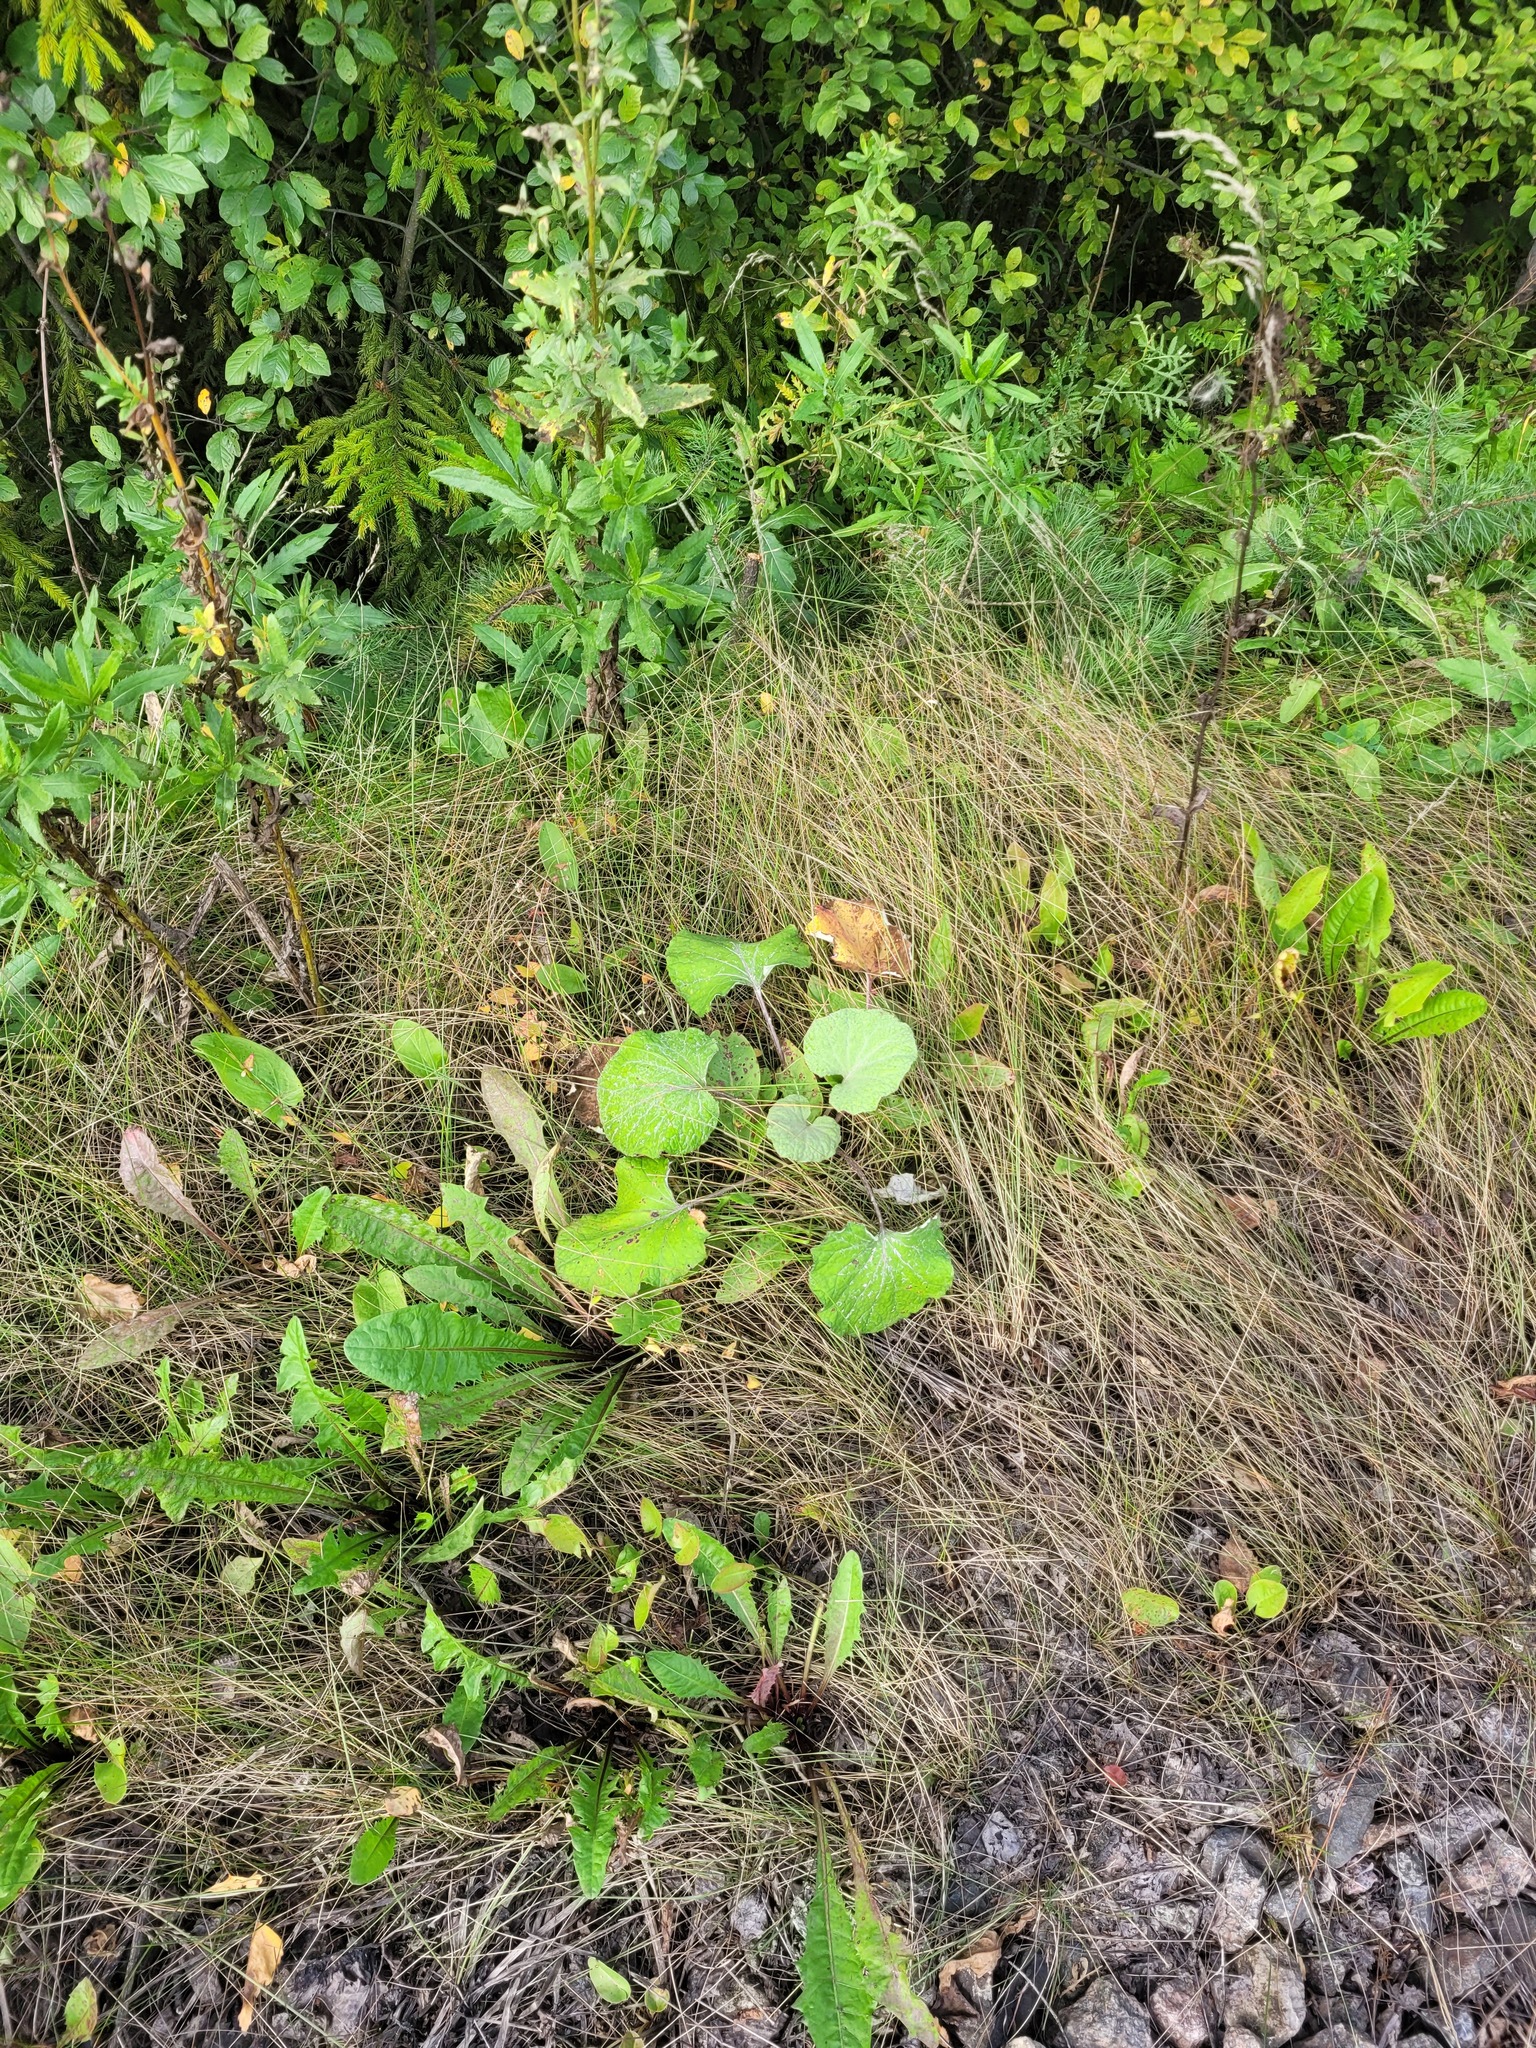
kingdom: Plantae
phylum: Tracheophyta
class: Magnoliopsida
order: Asterales
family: Asteraceae
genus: Tussilago
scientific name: Tussilago farfara
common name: Coltsfoot
